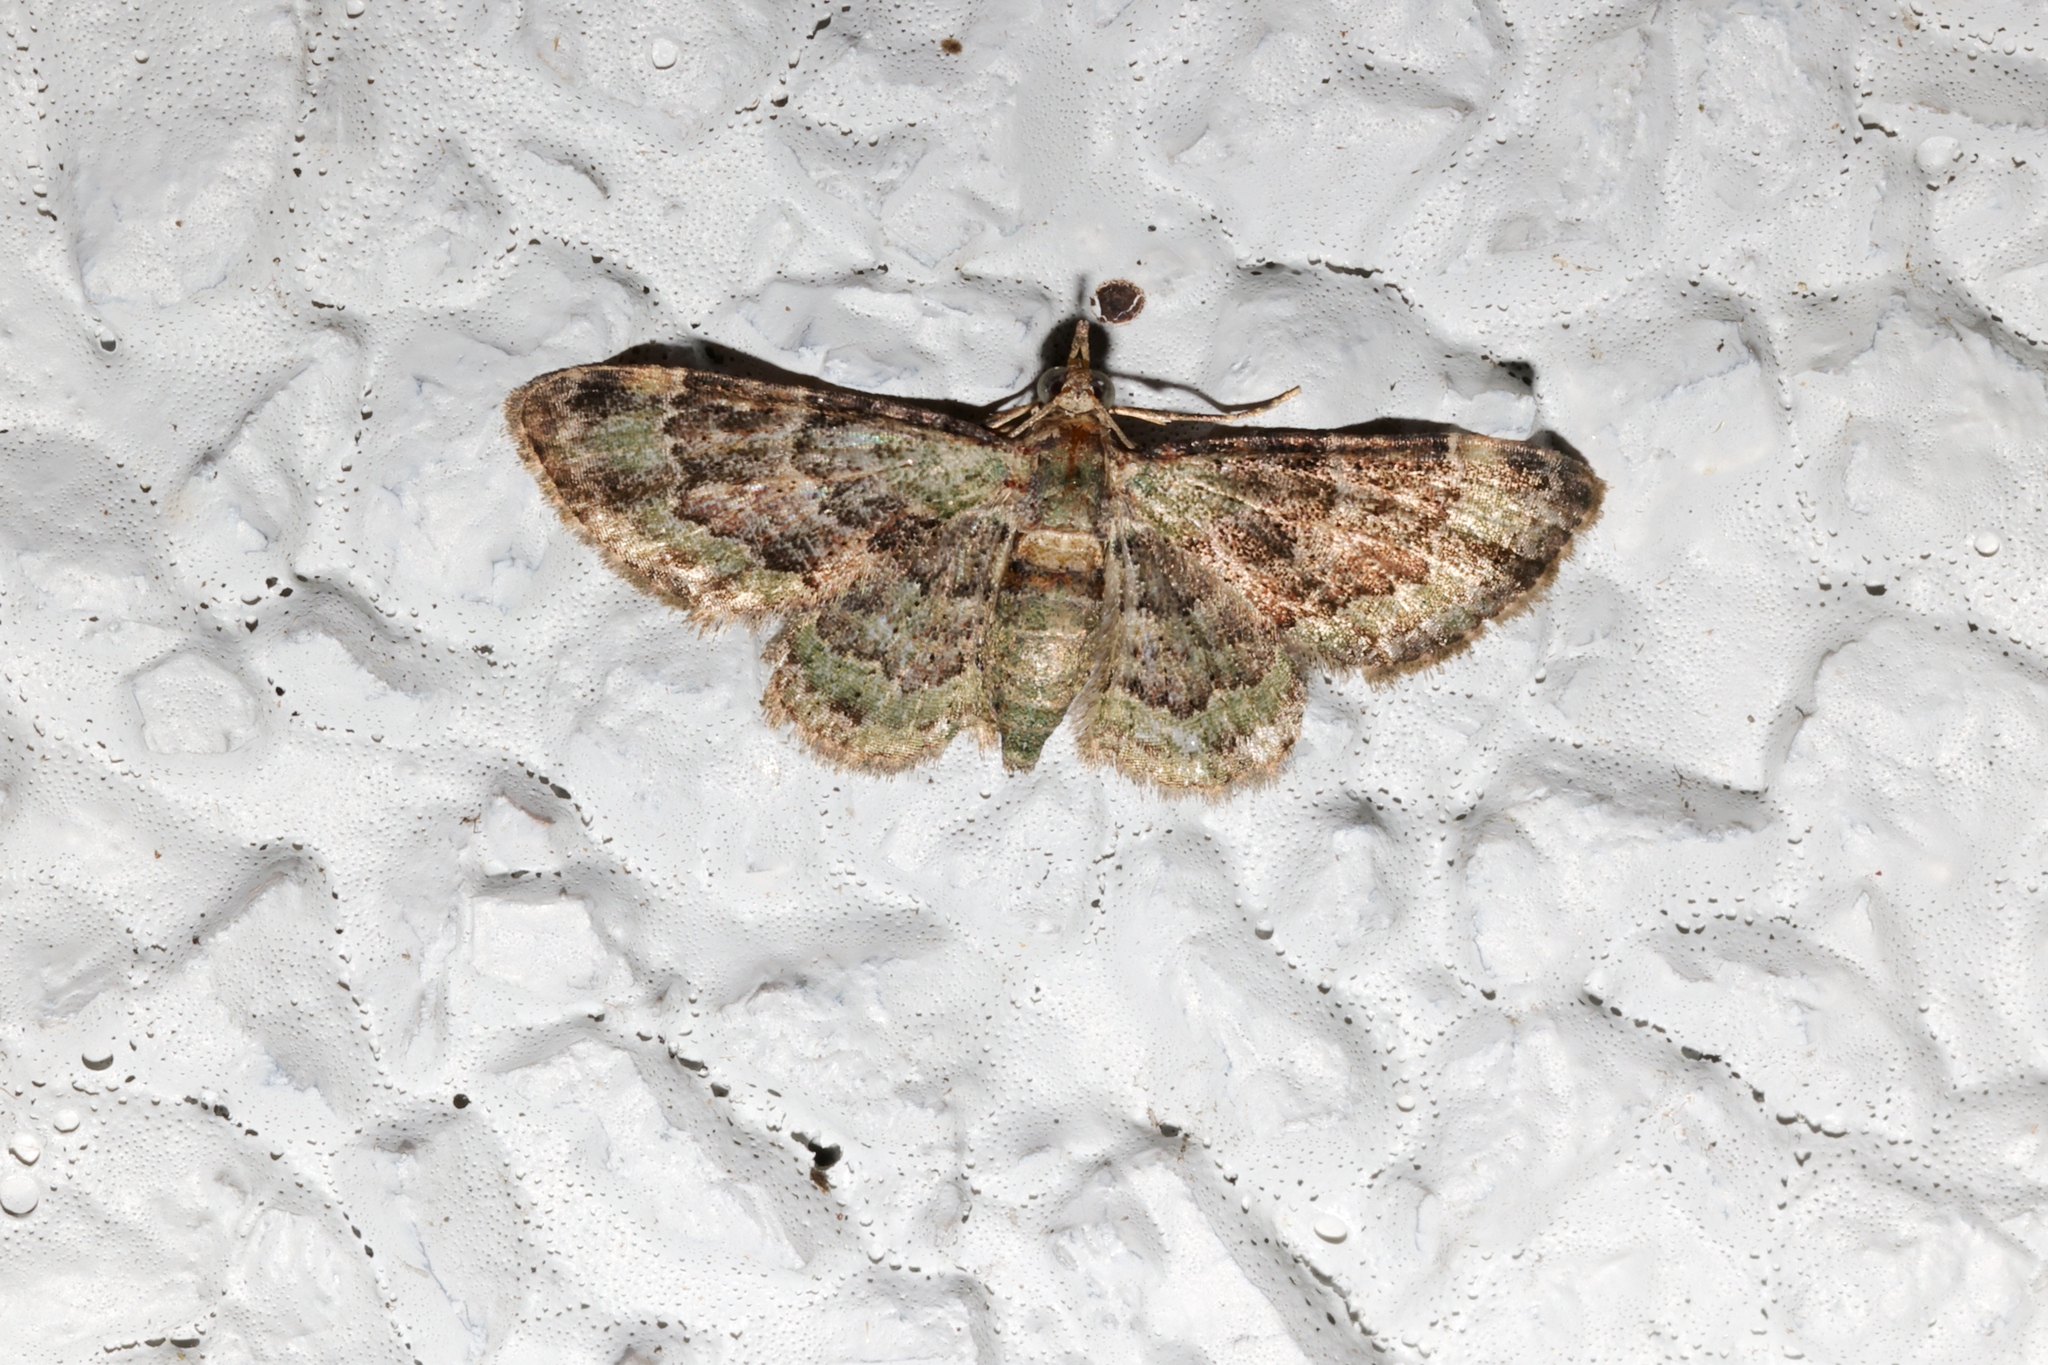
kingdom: Animalia
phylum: Arthropoda
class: Insecta
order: Lepidoptera
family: Geometridae
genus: Gymnoscelis
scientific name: Gymnoscelis taprobanica
